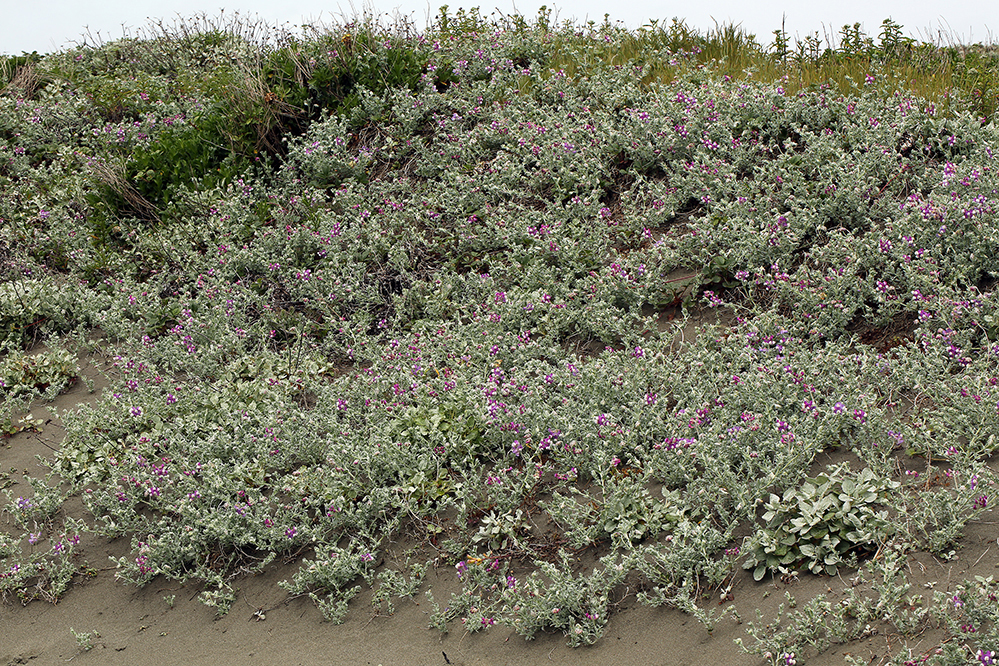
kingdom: Plantae
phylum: Tracheophyta
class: Magnoliopsida
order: Fabales
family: Fabaceae
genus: Lathyrus
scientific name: Lathyrus littoralis
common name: Dune sweet pea
